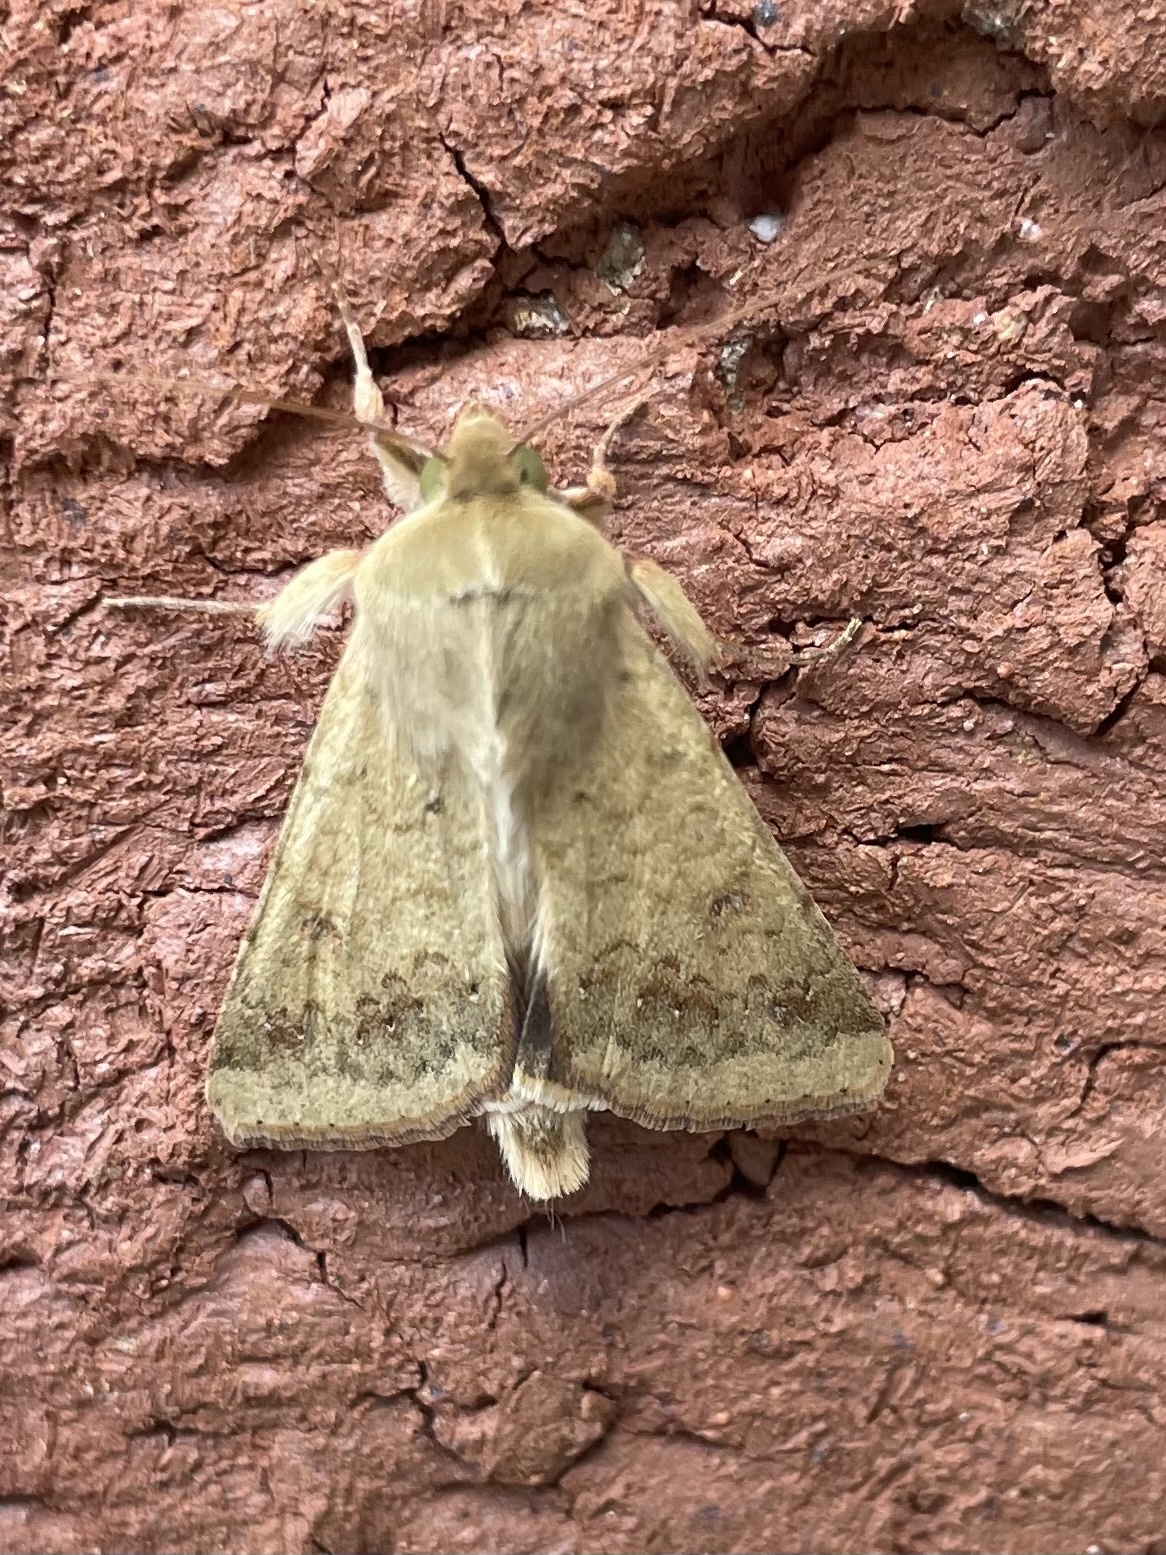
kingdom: Animalia
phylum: Arthropoda
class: Insecta
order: Lepidoptera
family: Noctuidae
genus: Helicoverpa
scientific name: Helicoverpa zea
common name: Bollworm
